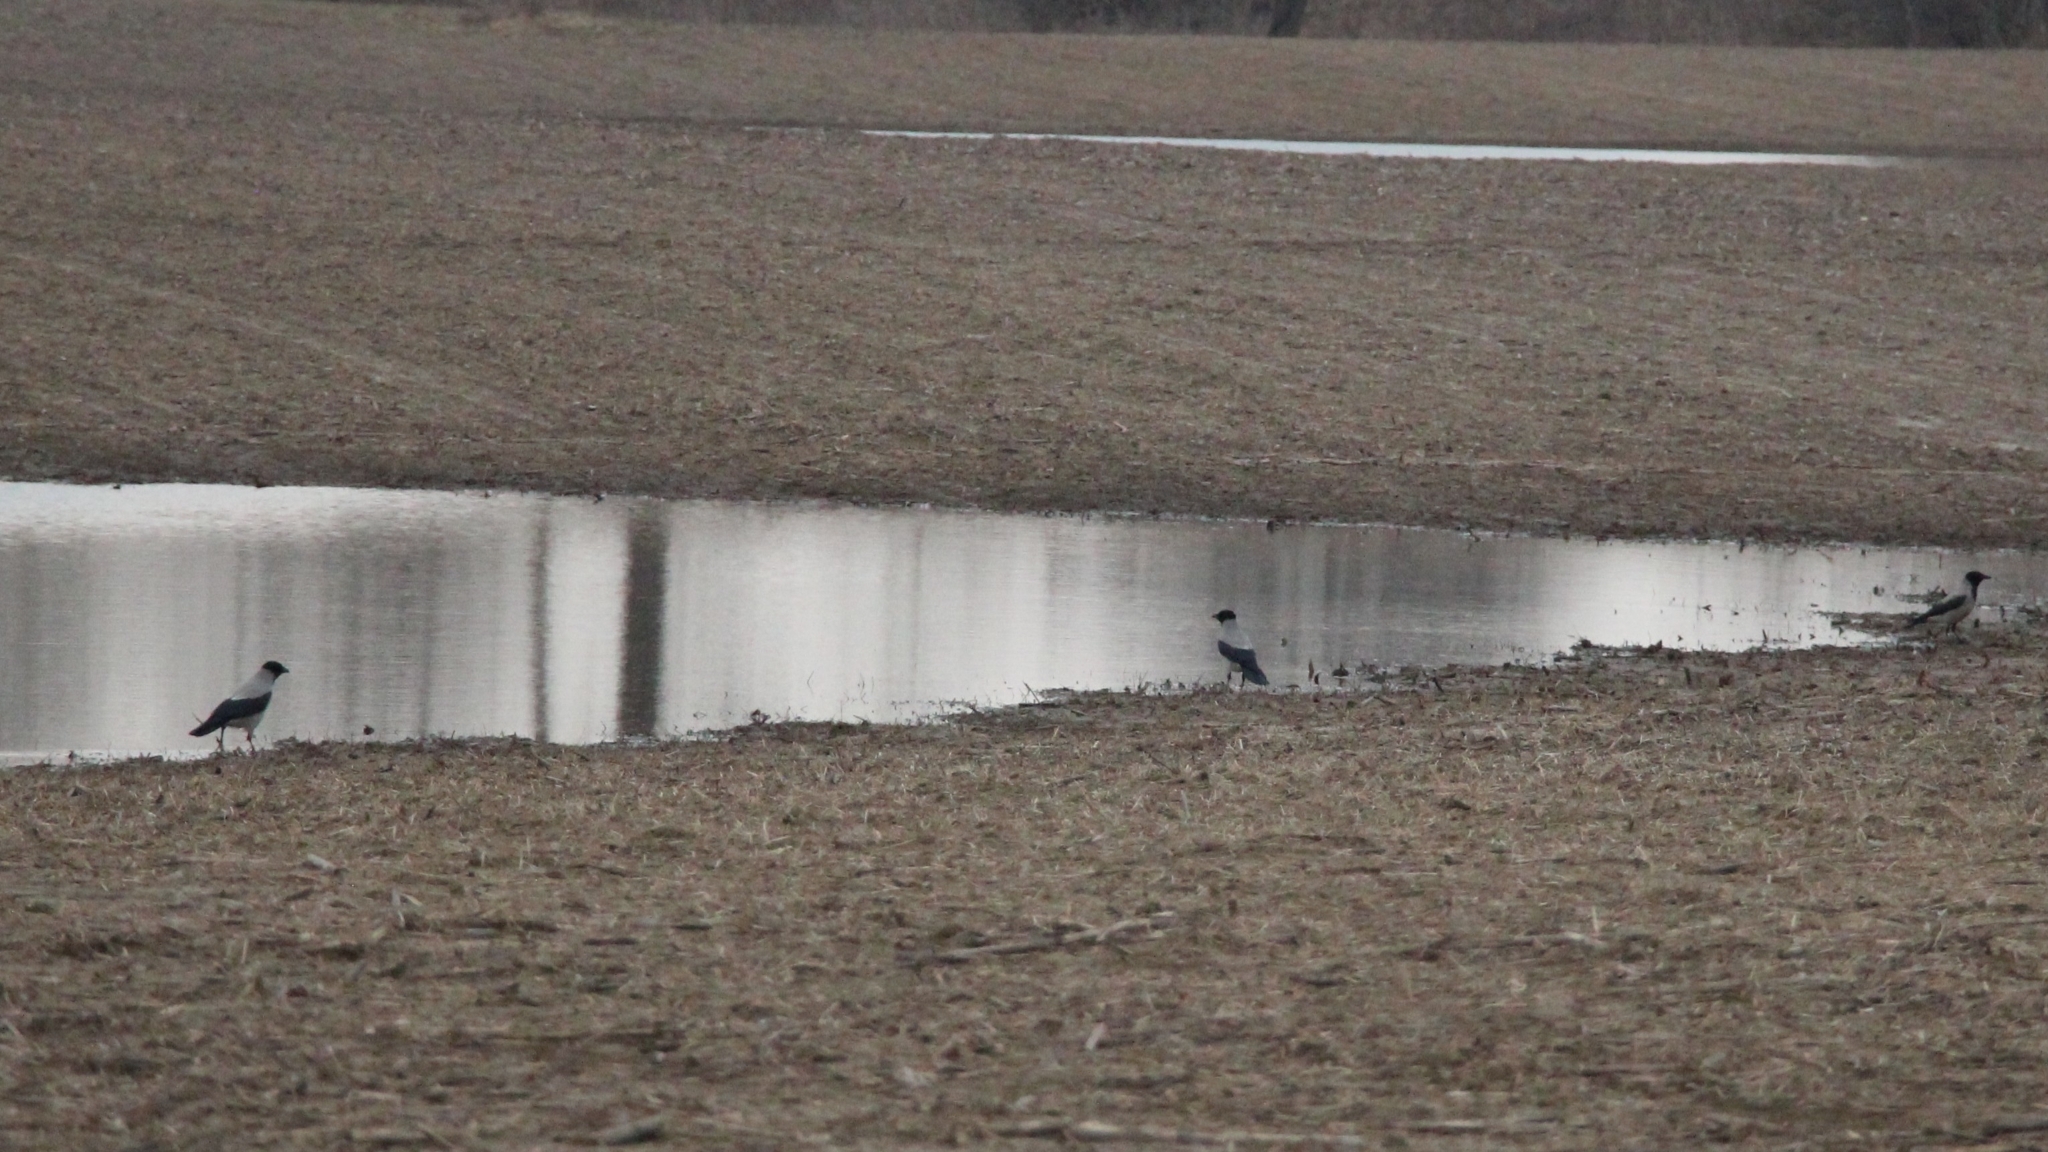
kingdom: Animalia
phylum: Chordata
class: Aves
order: Passeriformes
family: Corvidae
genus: Corvus
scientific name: Corvus cornix
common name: Hooded crow
